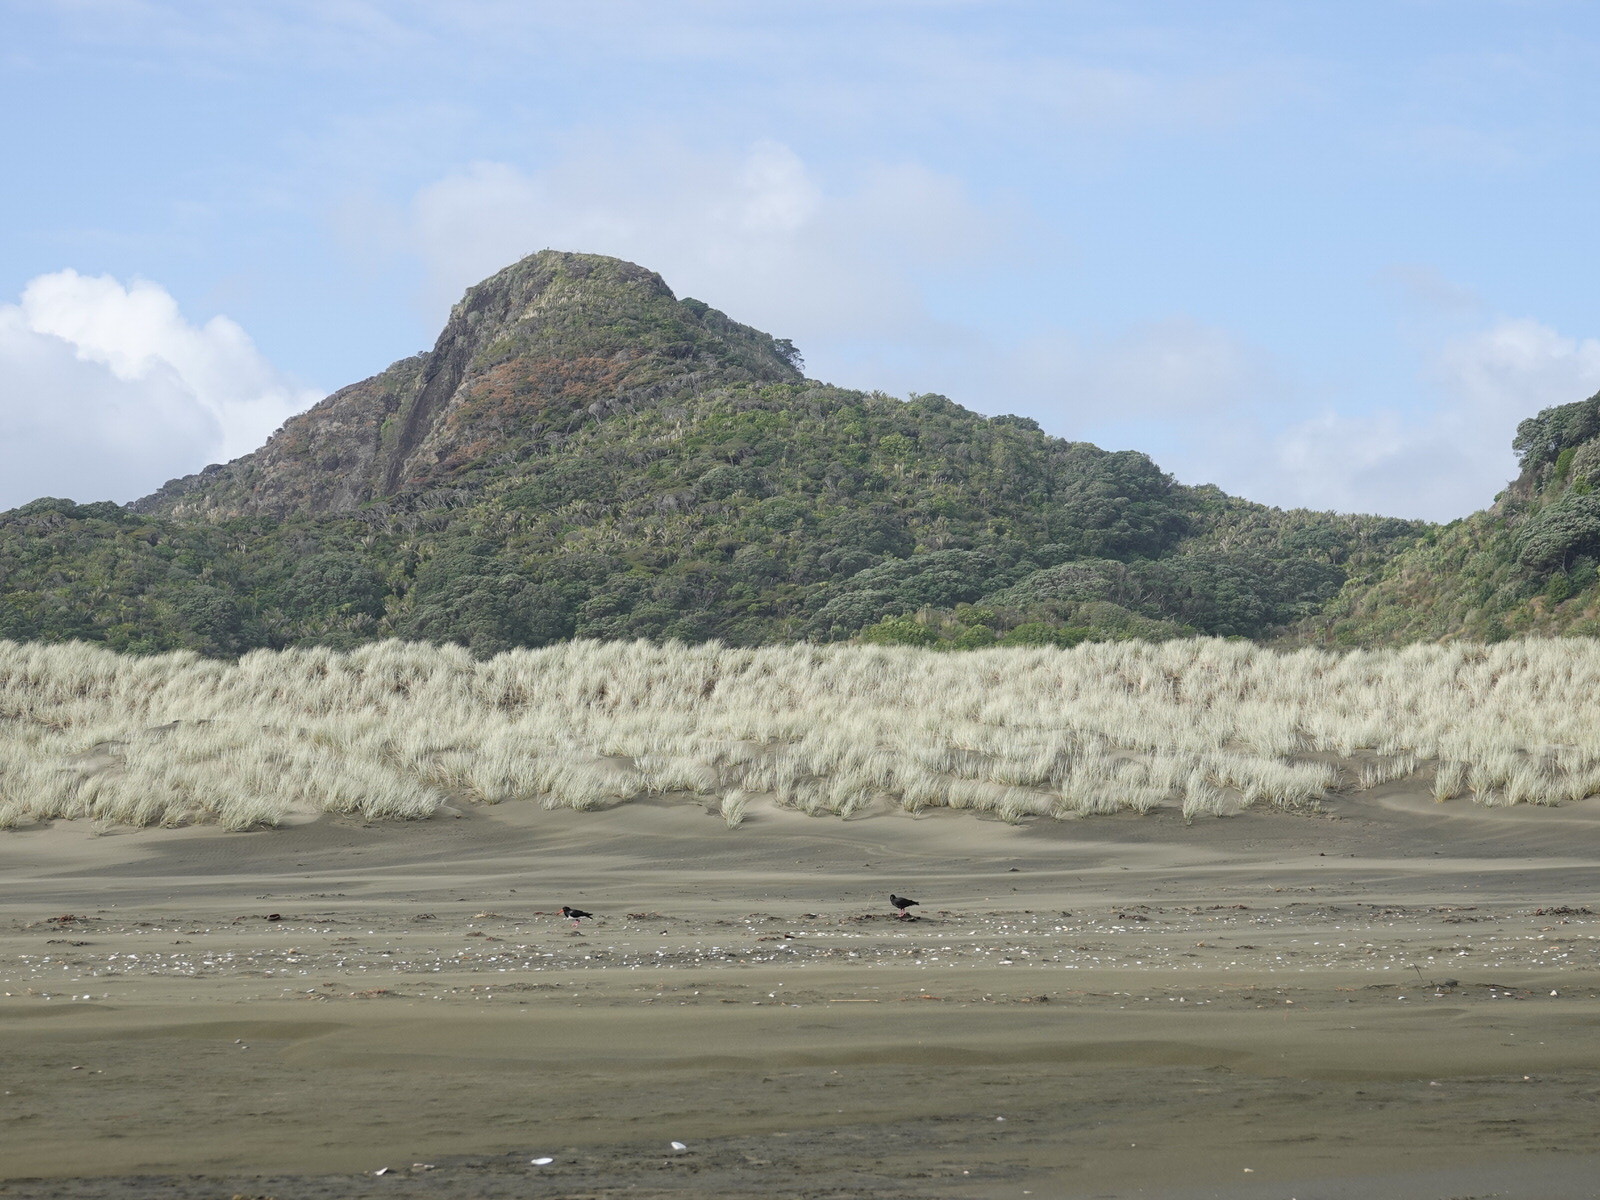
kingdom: Animalia
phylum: Chordata
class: Aves
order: Charadriiformes
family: Haematopodidae
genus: Haematopus
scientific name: Haematopus unicolor
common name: Variable oystercatcher
